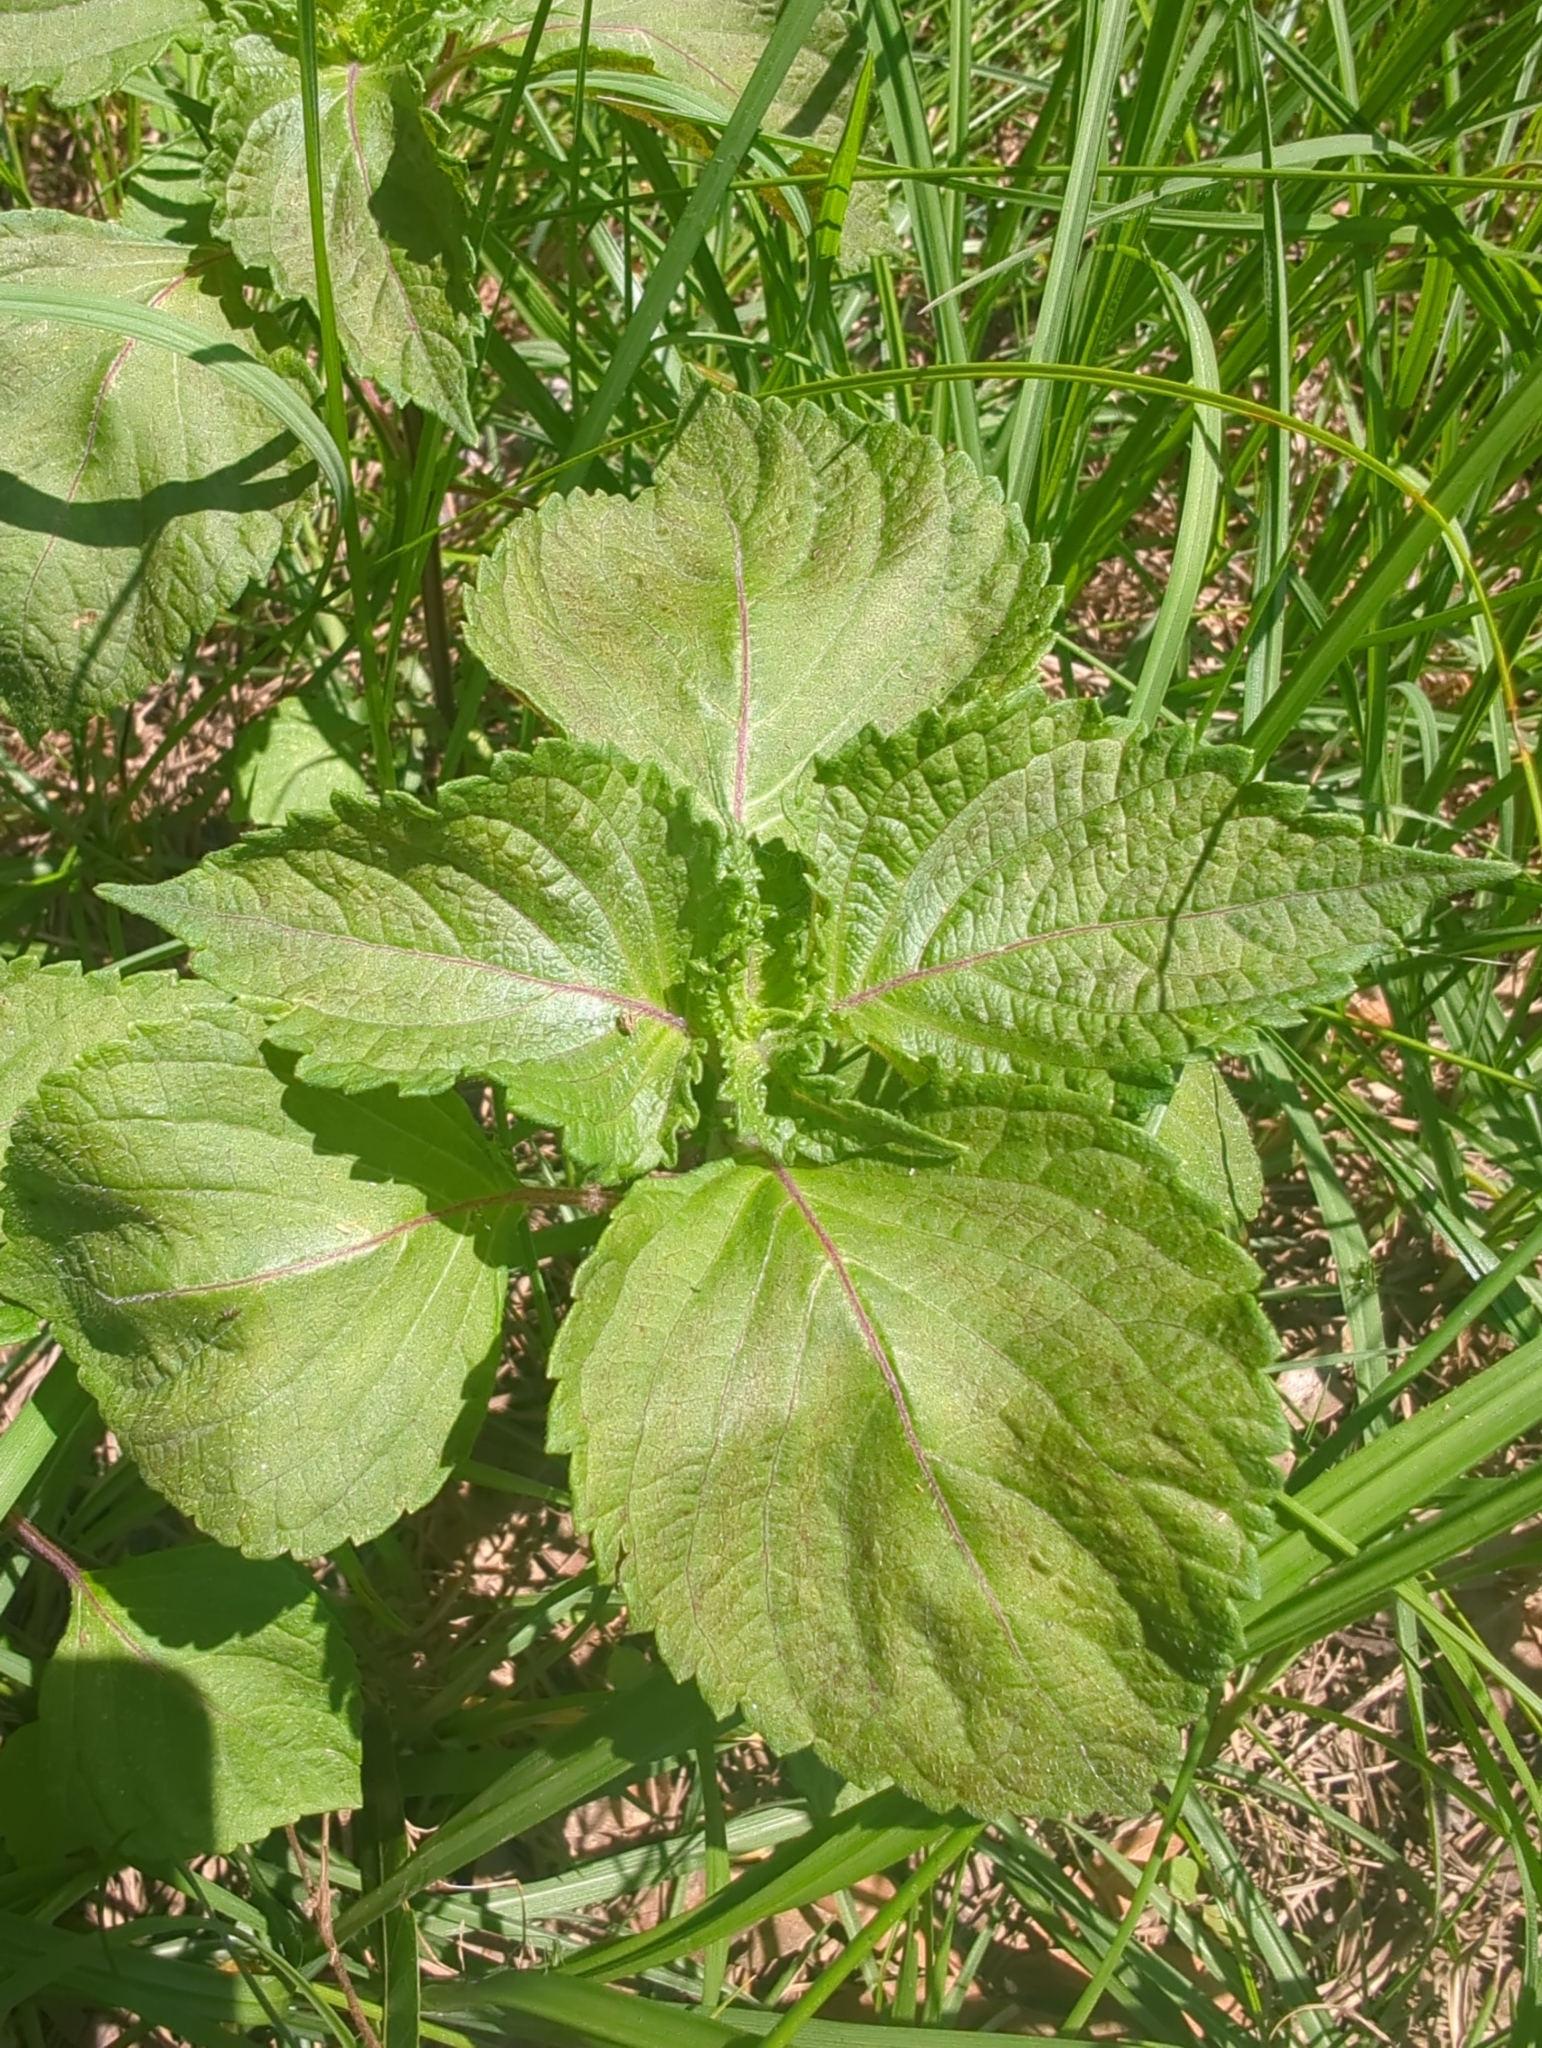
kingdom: Plantae
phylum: Tracheophyta
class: Magnoliopsida
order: Lamiales
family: Lamiaceae
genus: Perilla
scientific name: Perilla frutescens
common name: Perilla
